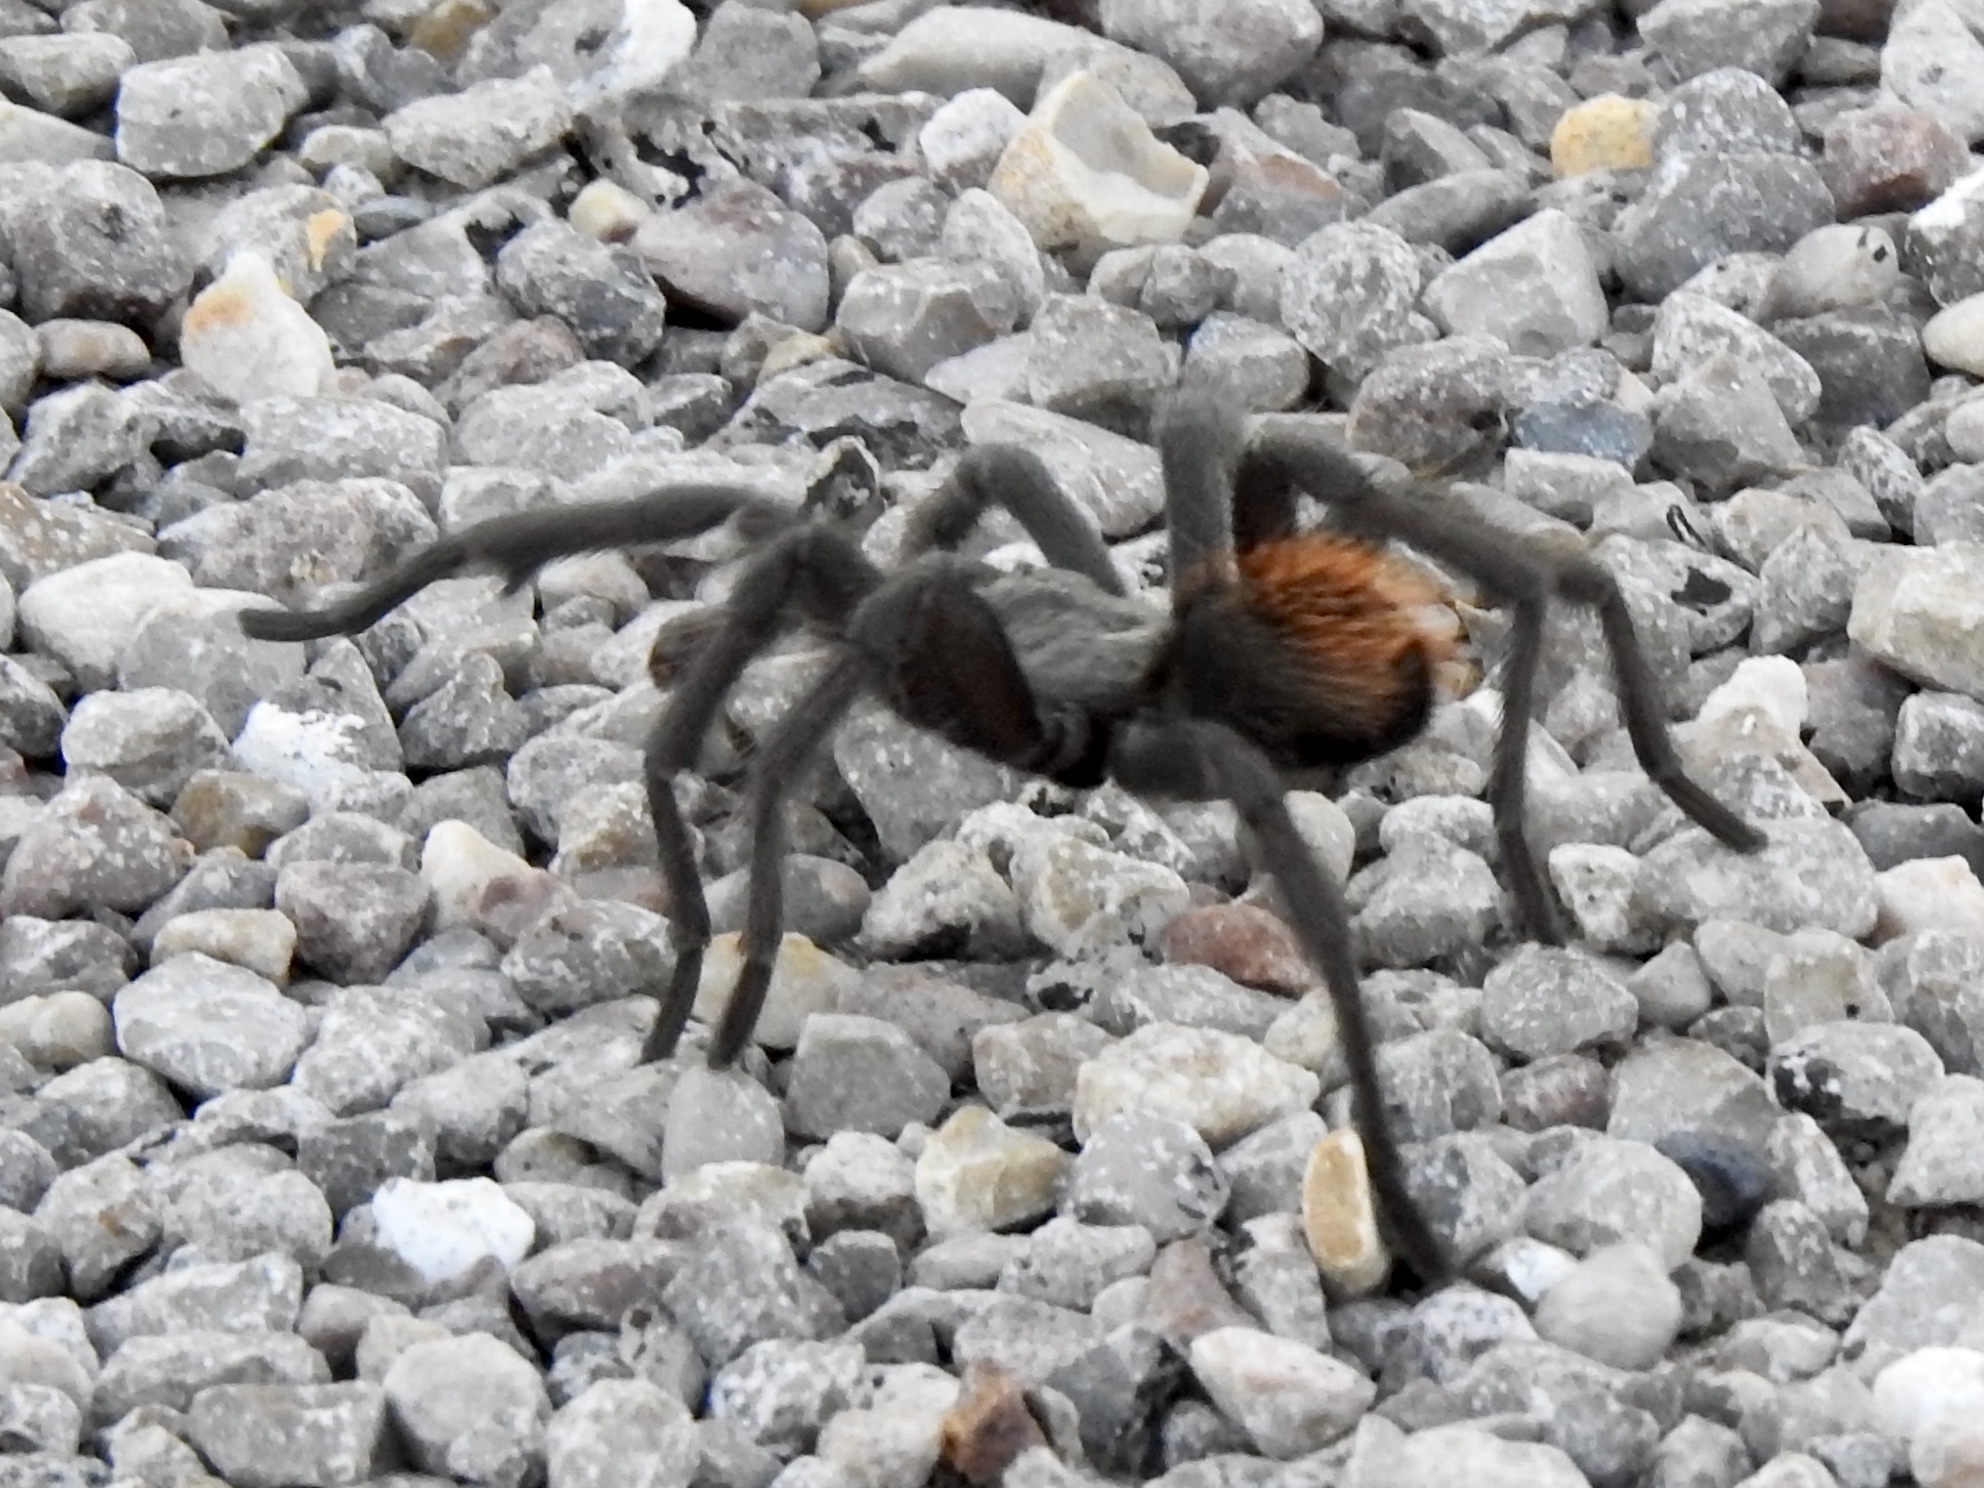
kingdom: Animalia
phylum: Arthropoda
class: Arachnida
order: Araneae
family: Theraphosidae
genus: Aphonopelma
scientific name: Aphonopelma vorhiesi
